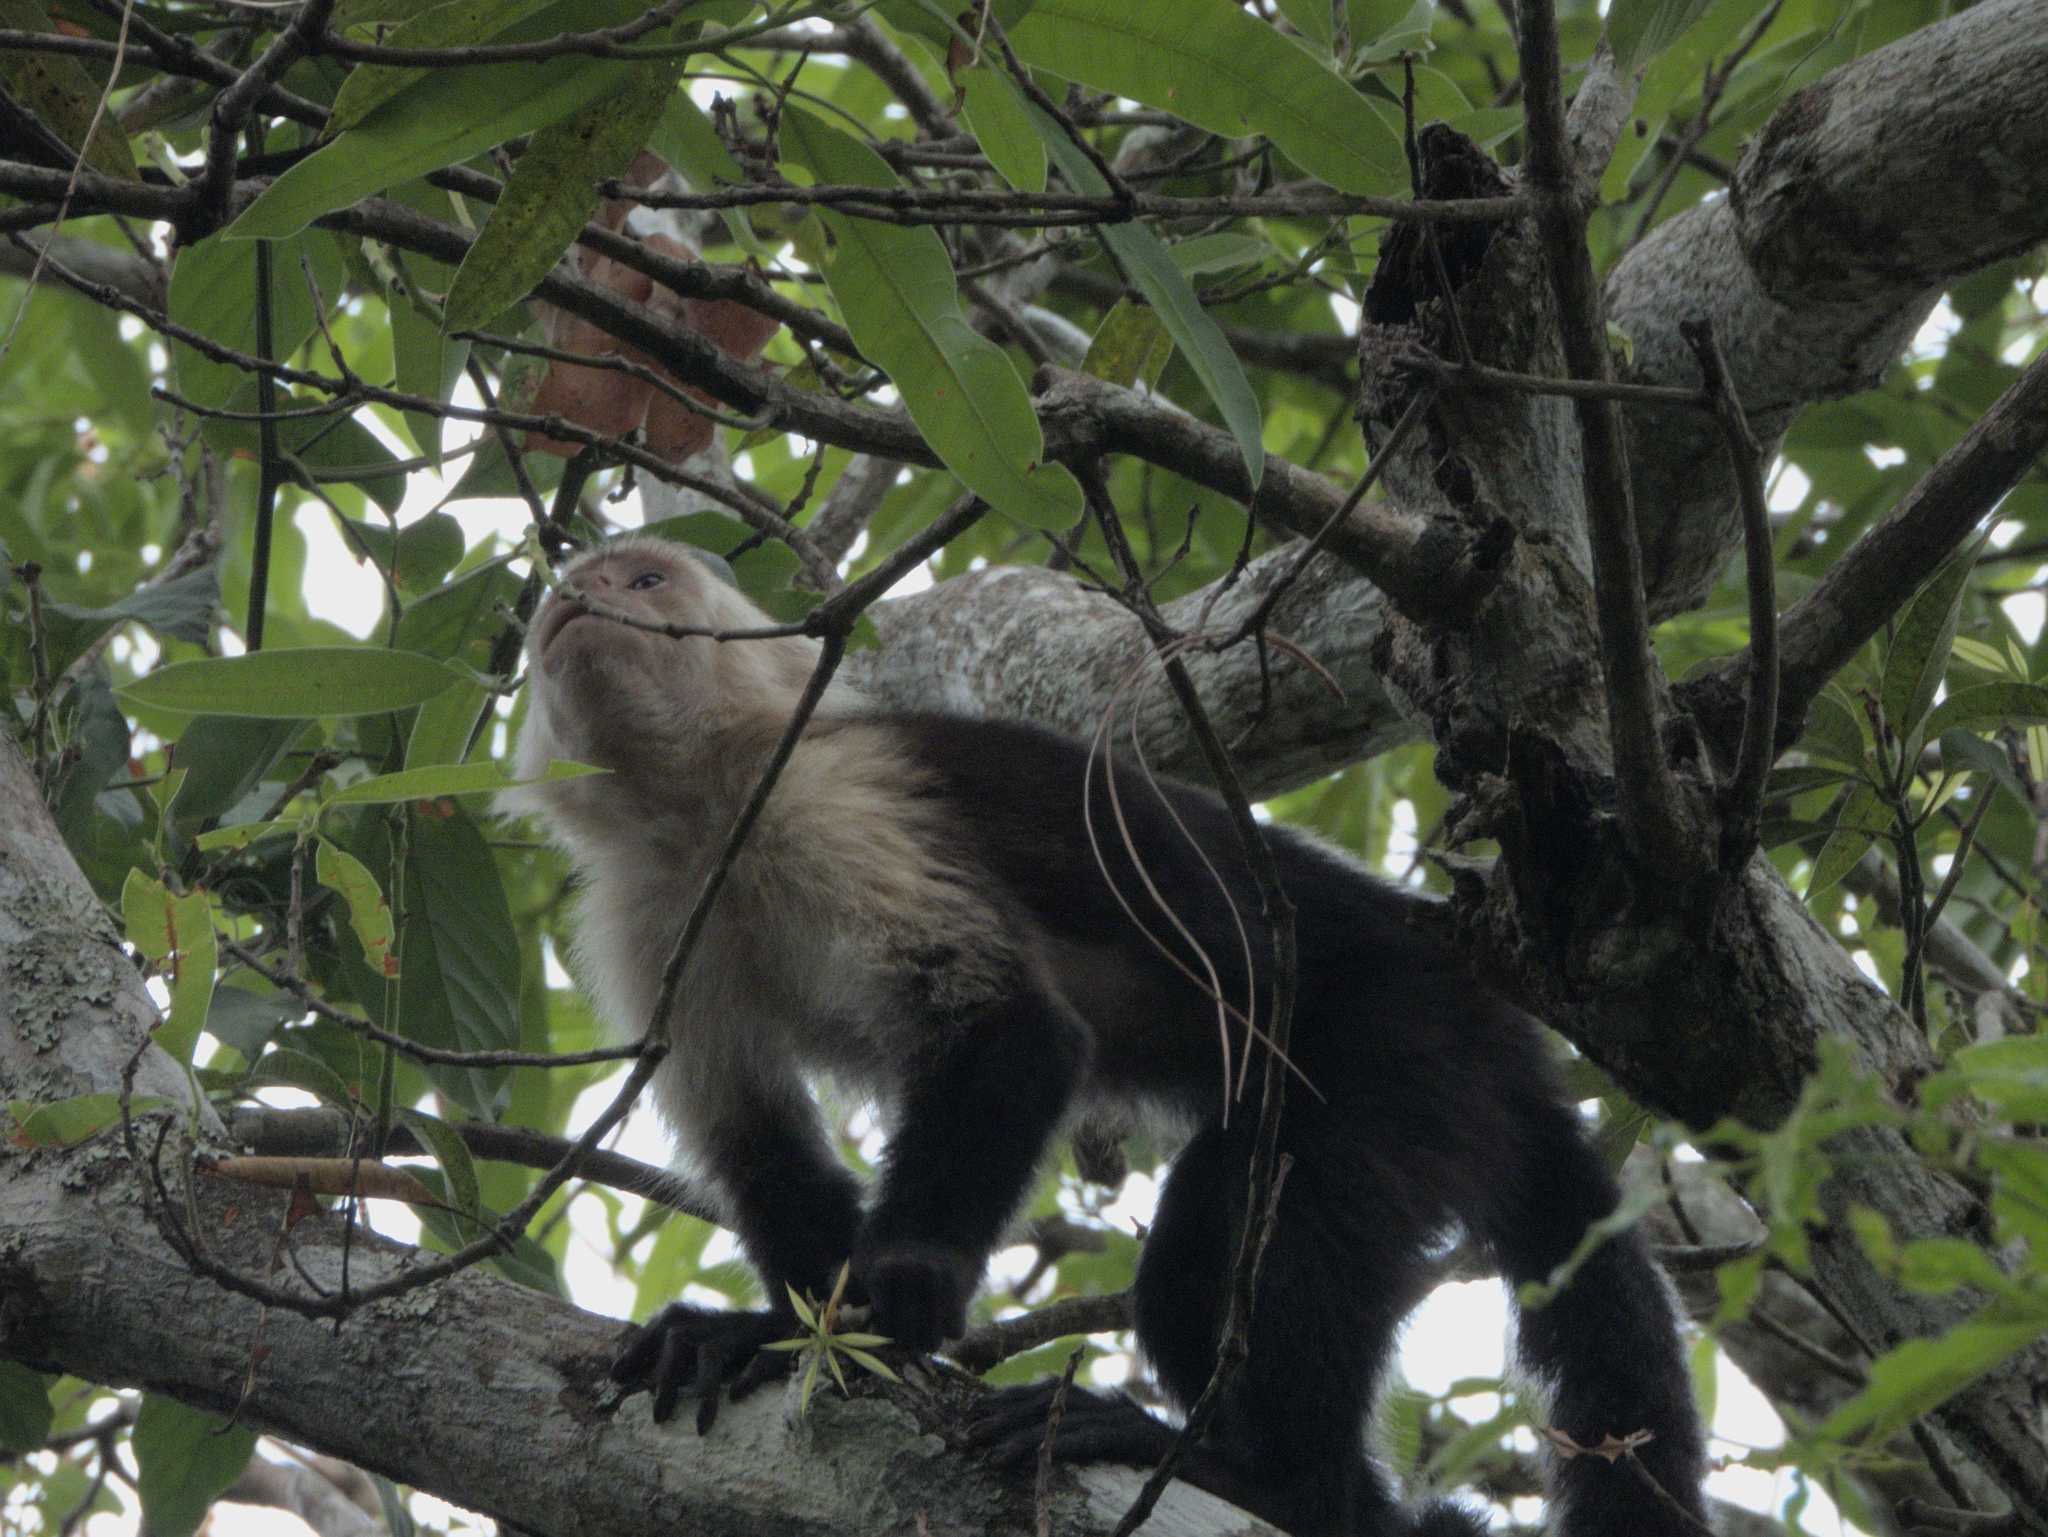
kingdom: Animalia
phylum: Chordata
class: Mammalia
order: Primates
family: Cebidae
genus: Cebus
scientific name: Cebus imitator
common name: Panamanian white-faced capuchin
